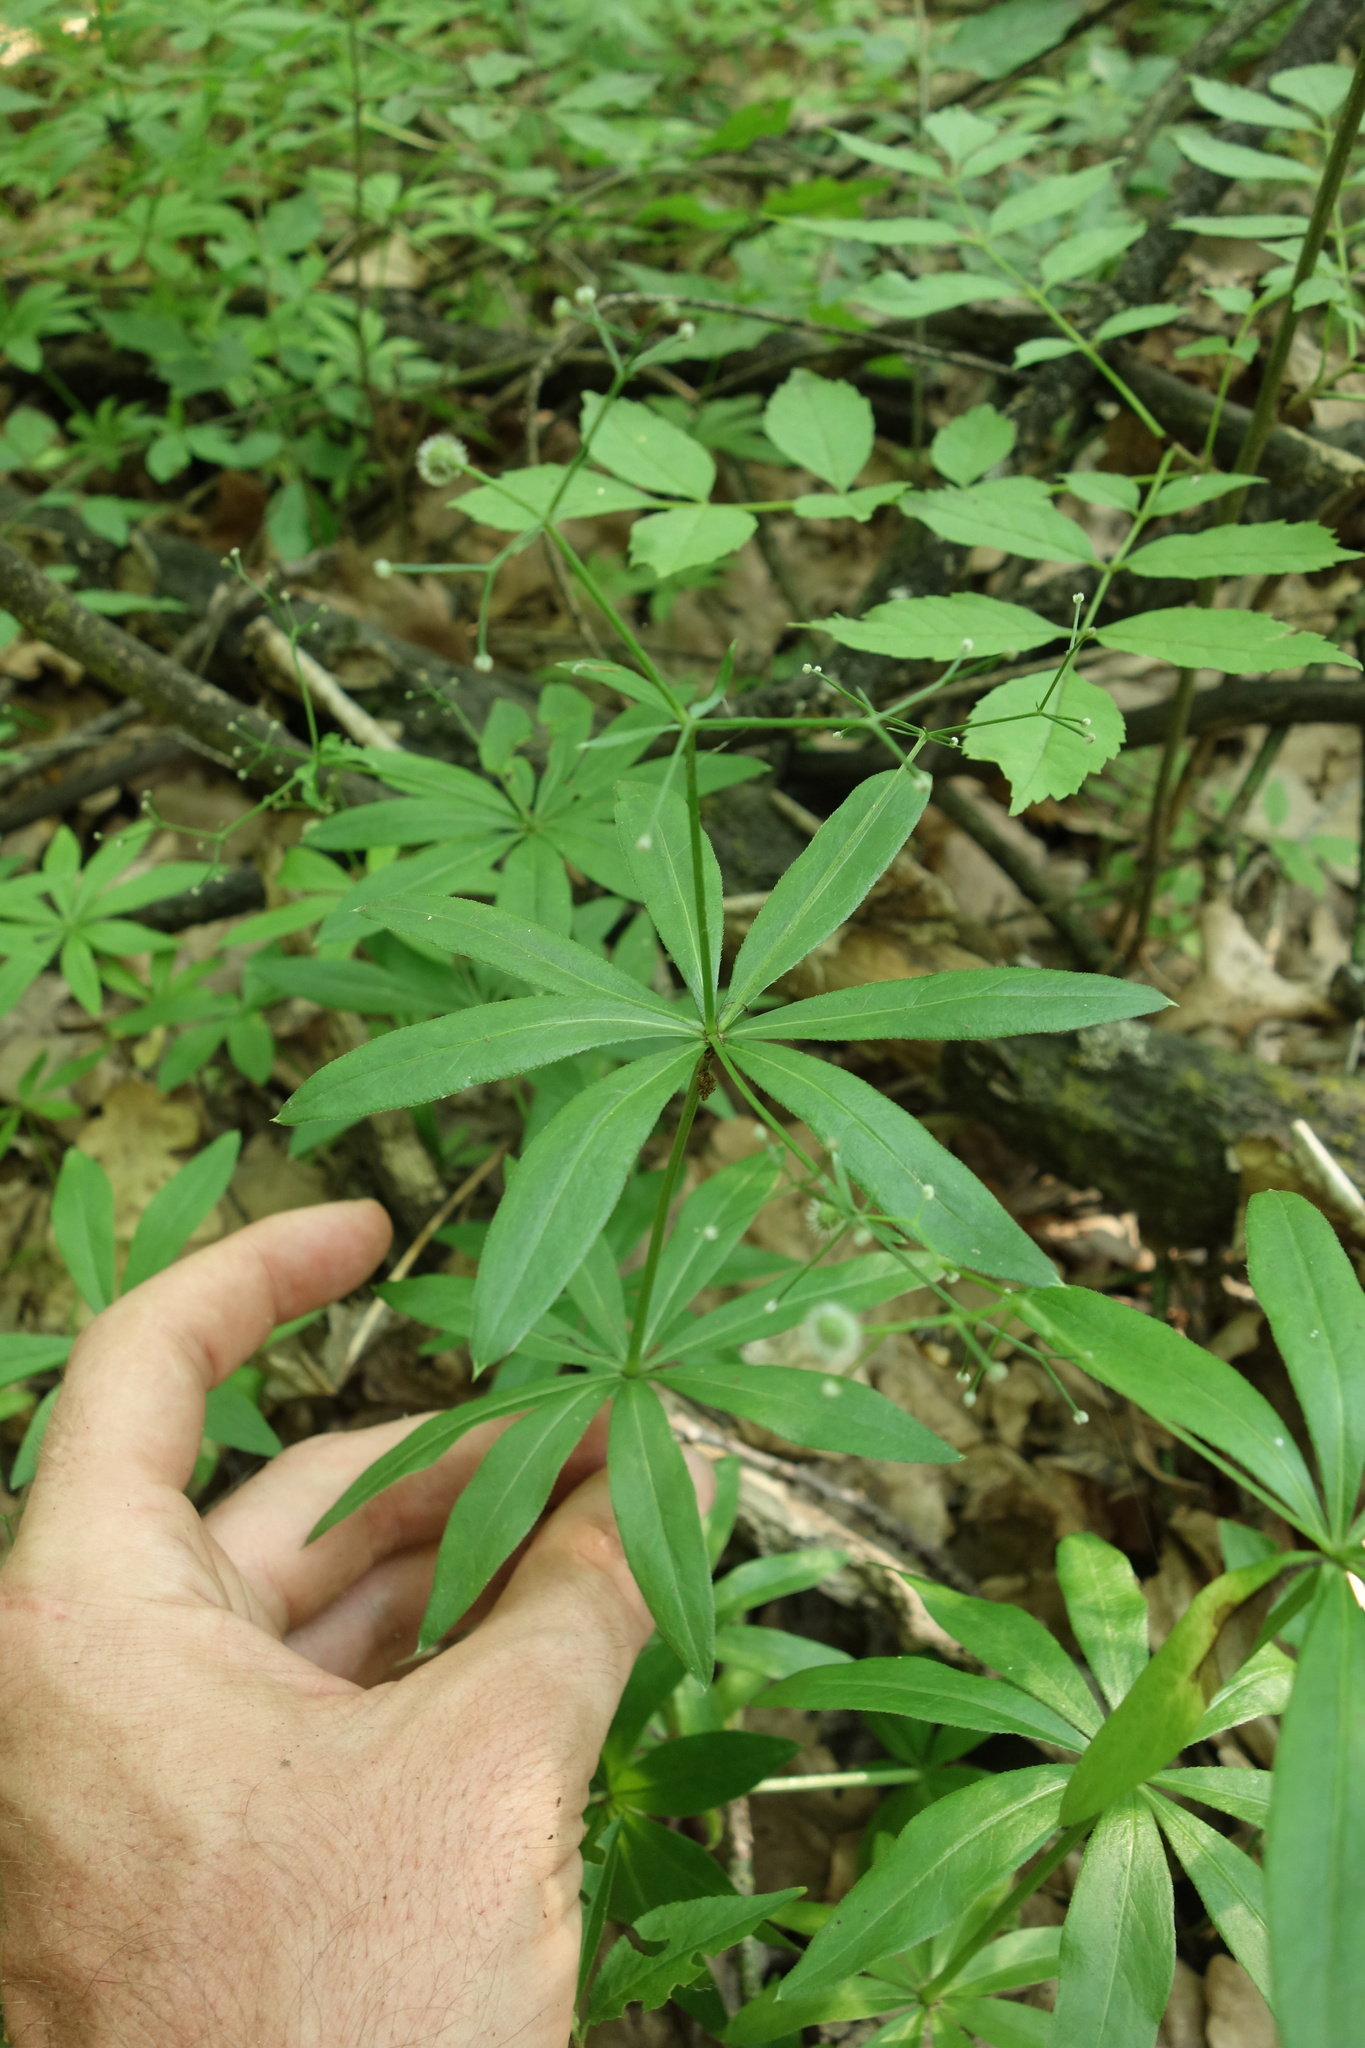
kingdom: Plantae
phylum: Tracheophyta
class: Magnoliopsida
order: Gentianales
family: Rubiaceae
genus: Galium
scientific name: Galium odoratum
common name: Sweet woodruff
